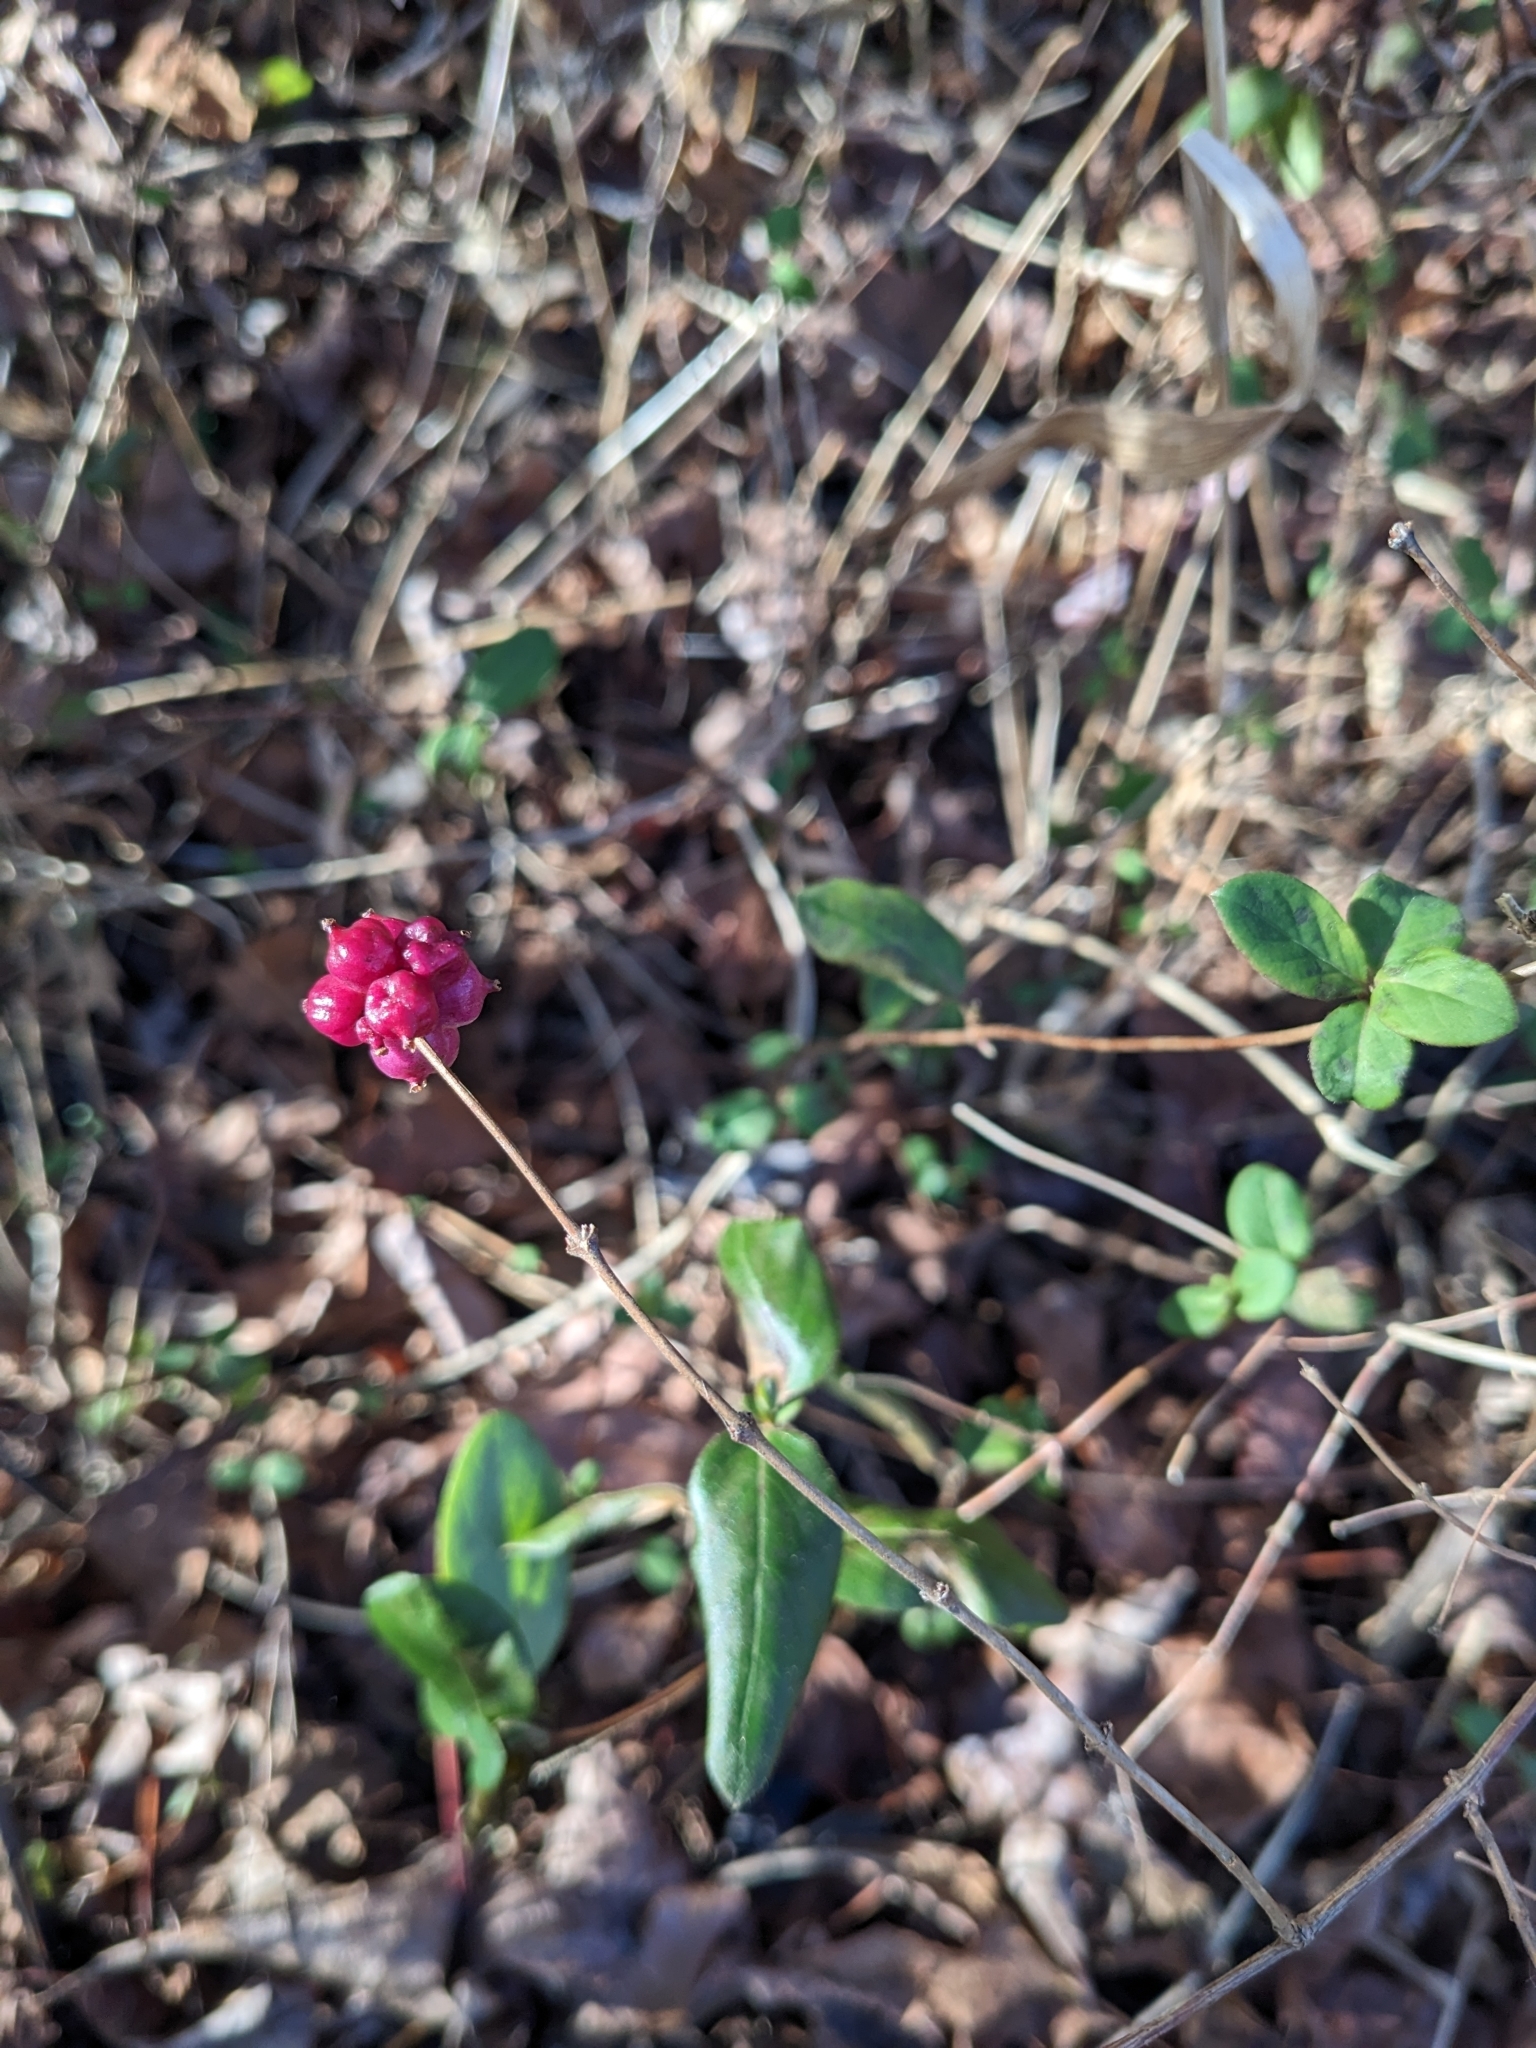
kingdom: Plantae
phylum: Tracheophyta
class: Magnoliopsida
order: Dipsacales
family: Caprifoliaceae
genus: Symphoricarpos
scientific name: Symphoricarpos orbiculatus
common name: Coralberry
